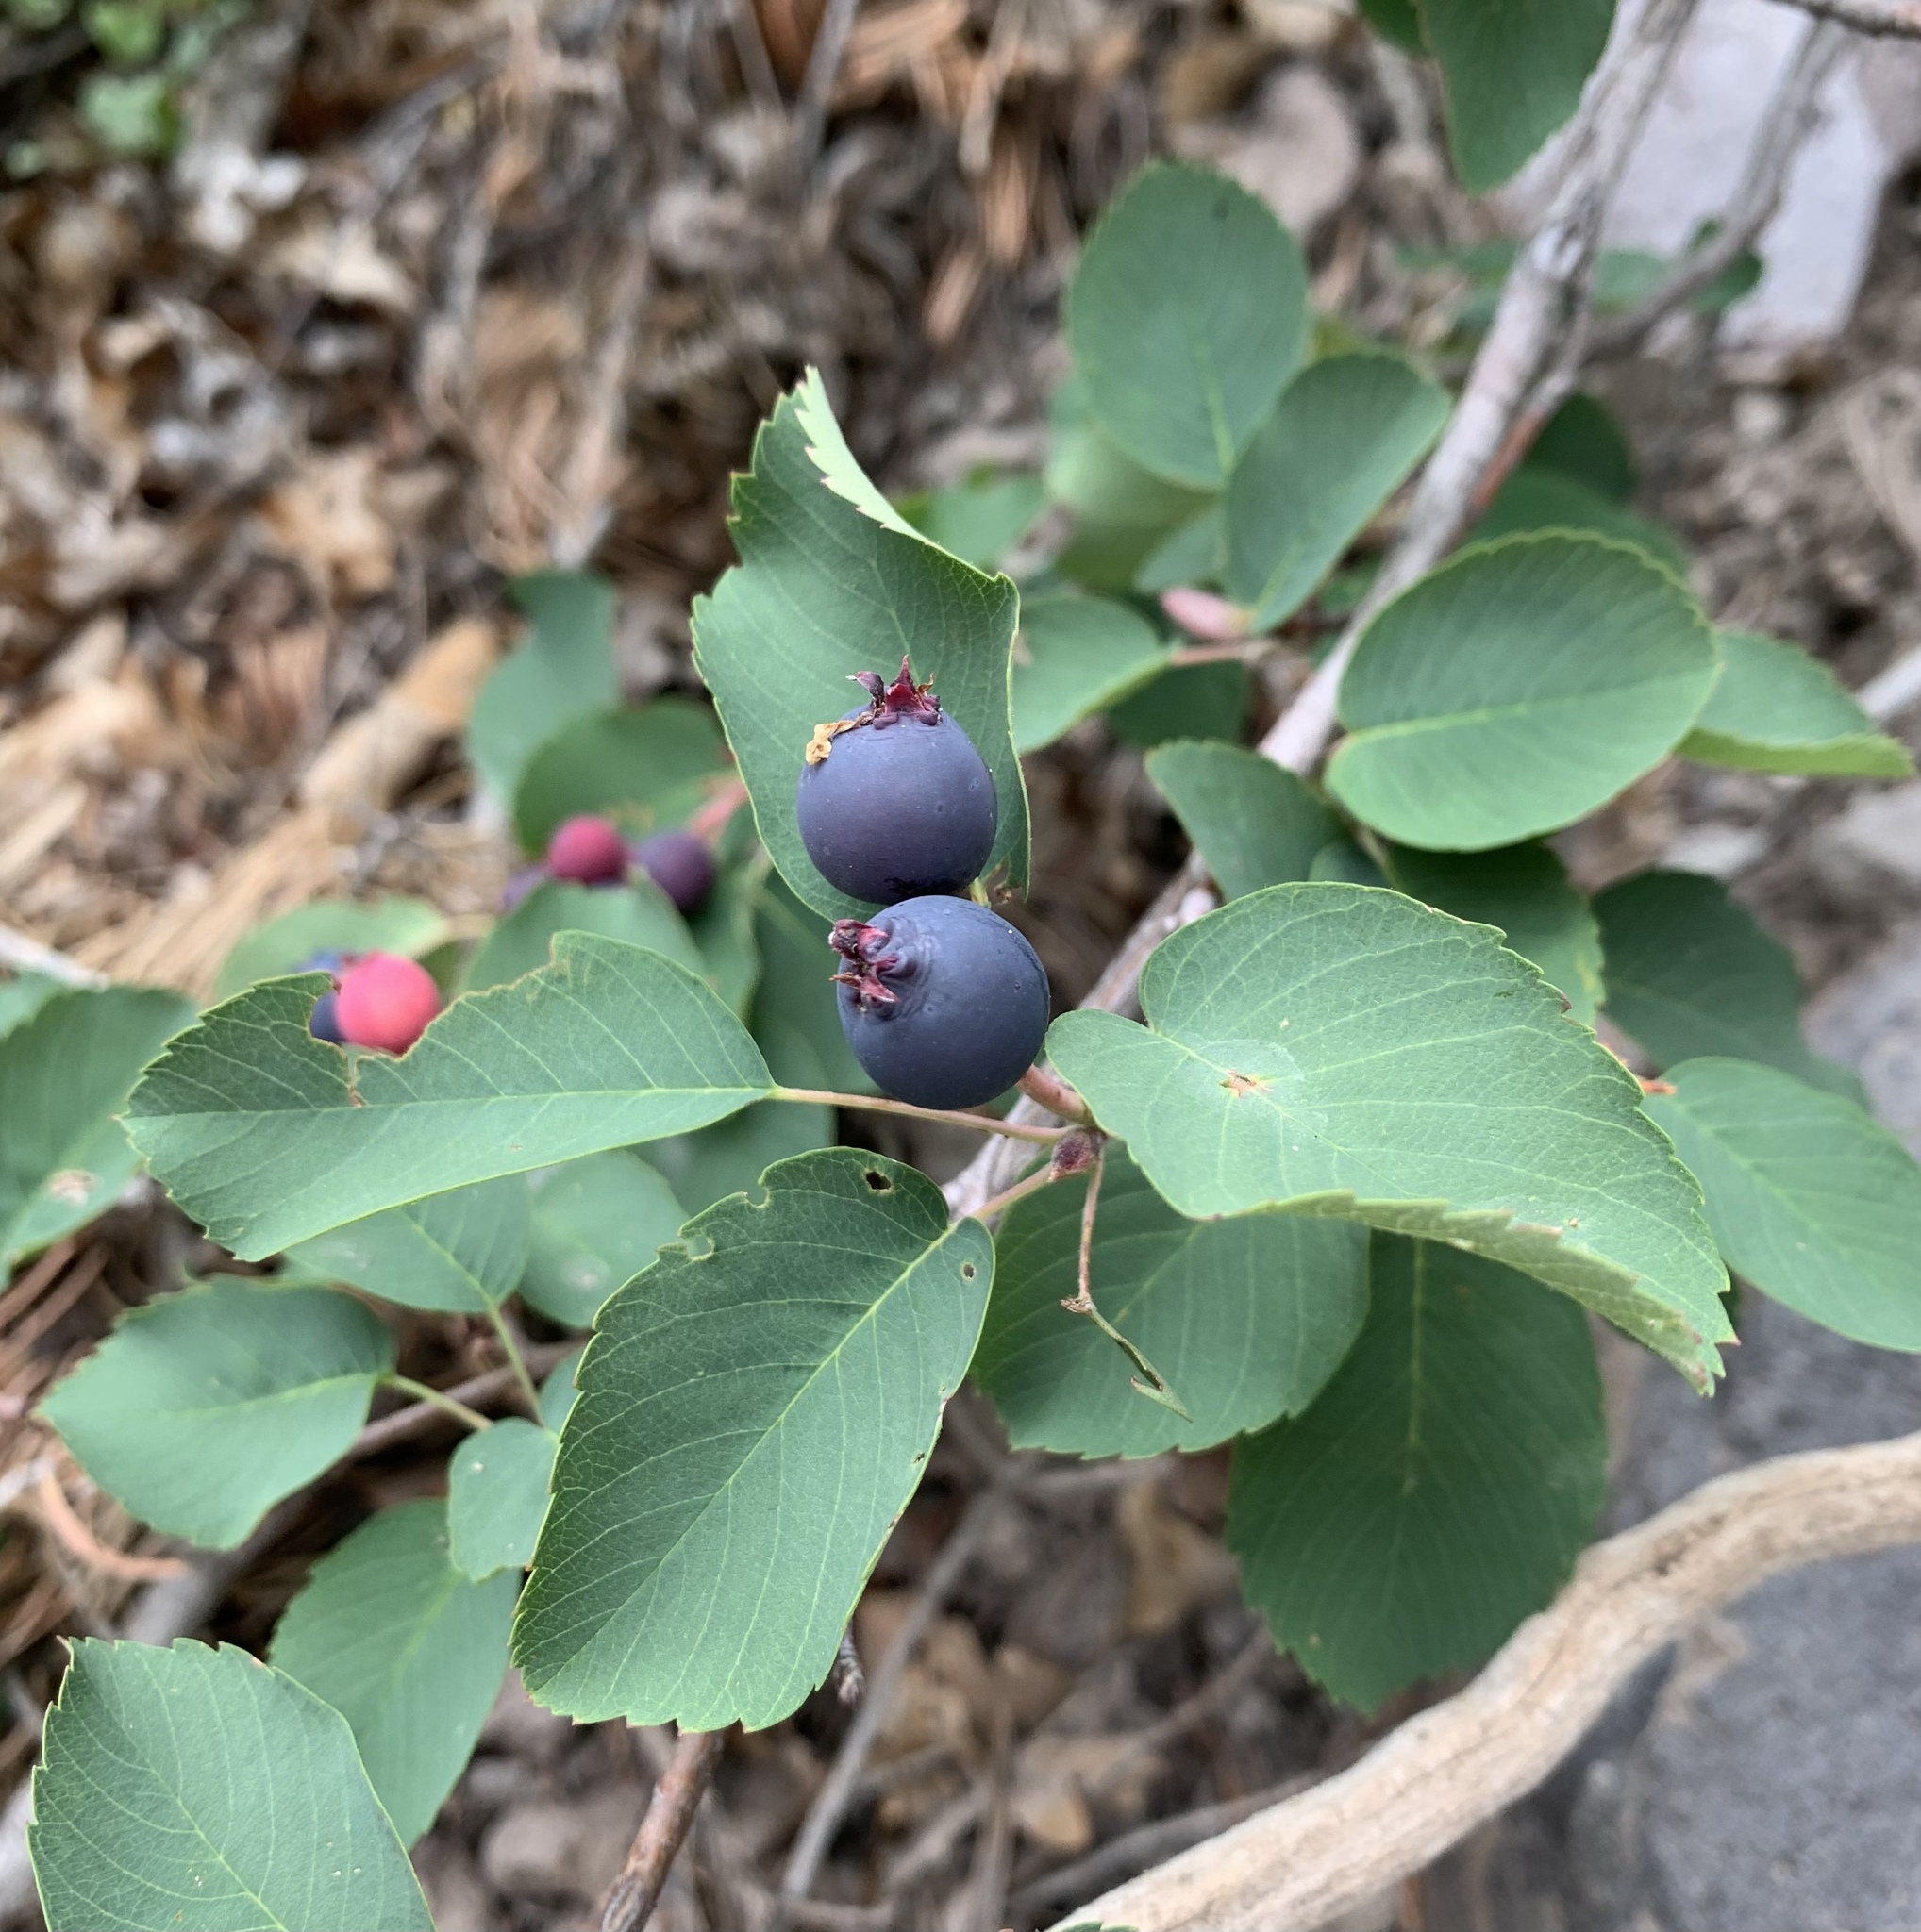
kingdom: Plantae
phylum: Tracheophyta
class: Magnoliopsida
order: Rosales
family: Rosaceae
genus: Amelanchier
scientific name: Amelanchier alnifolia
